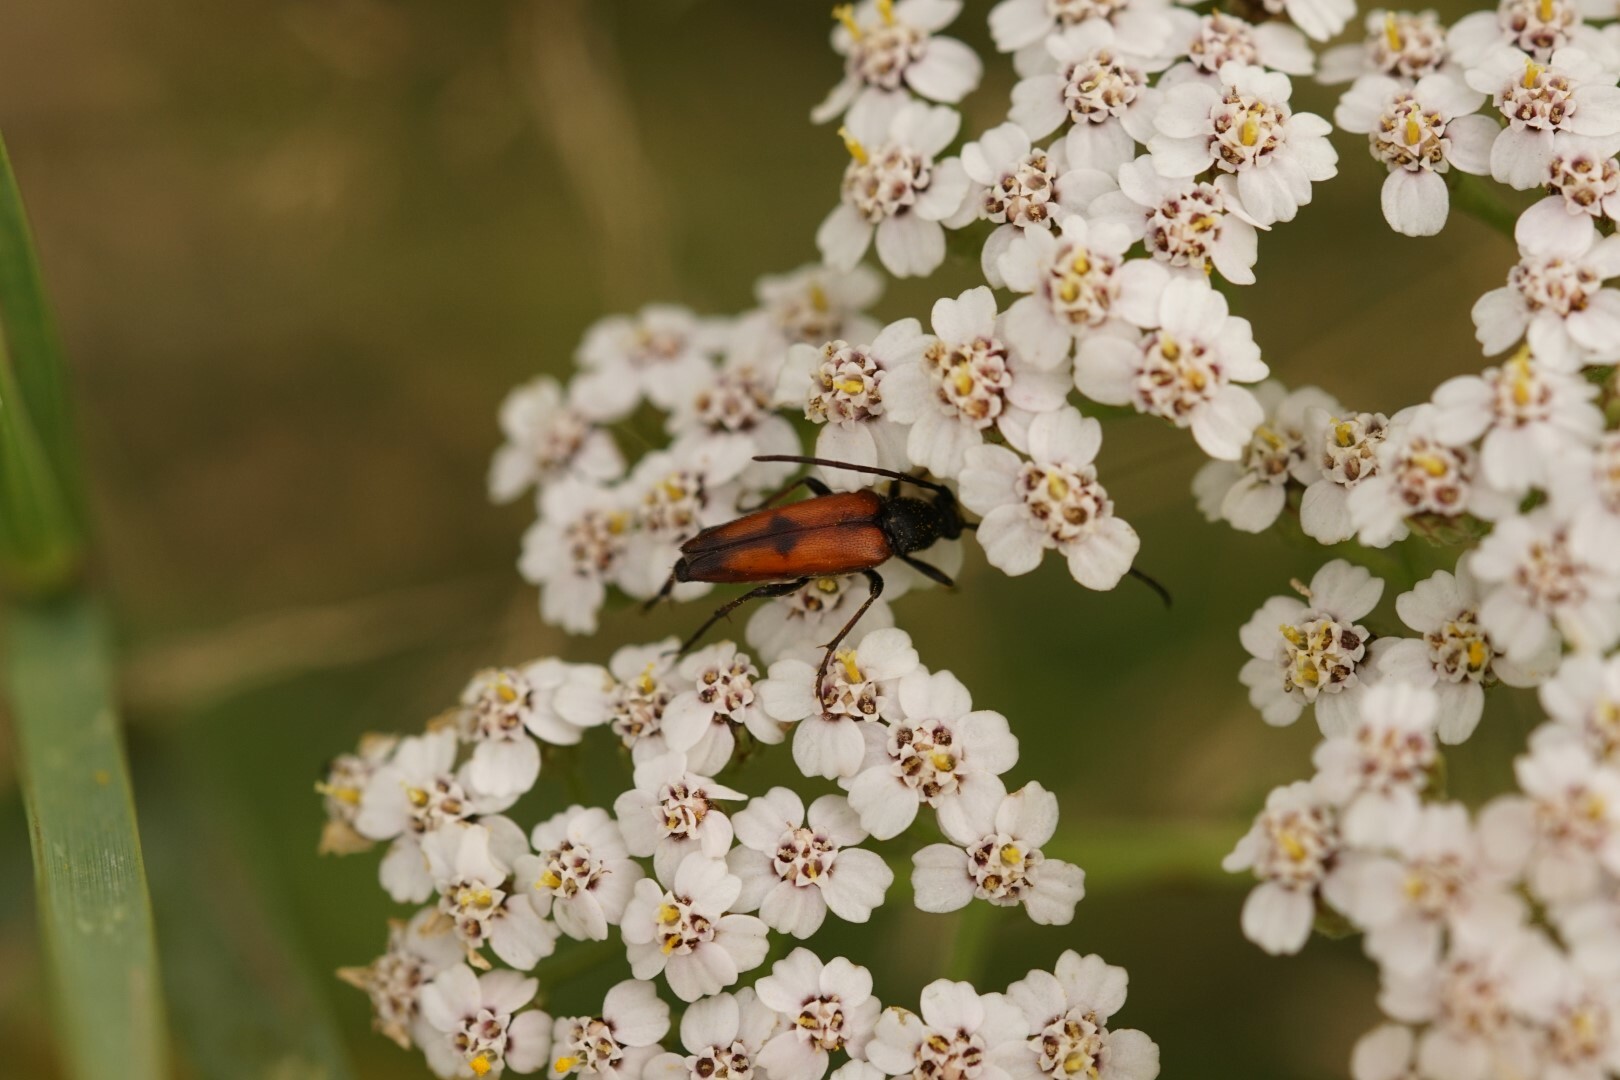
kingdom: Animalia
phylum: Arthropoda
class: Insecta
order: Coleoptera
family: Cerambycidae
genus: Stenurella
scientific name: Stenurella bifasciata
